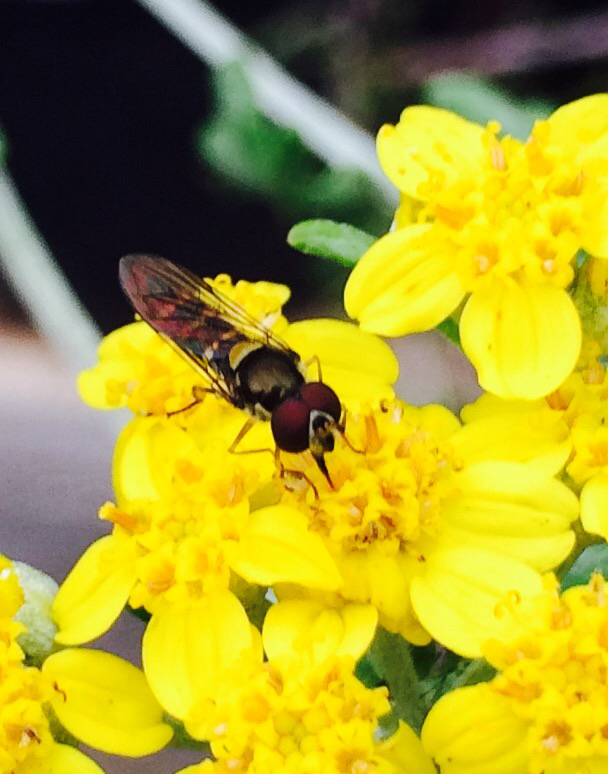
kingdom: Animalia
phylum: Arthropoda
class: Insecta
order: Diptera
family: Syrphidae
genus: Fazia
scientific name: Fazia micrura
